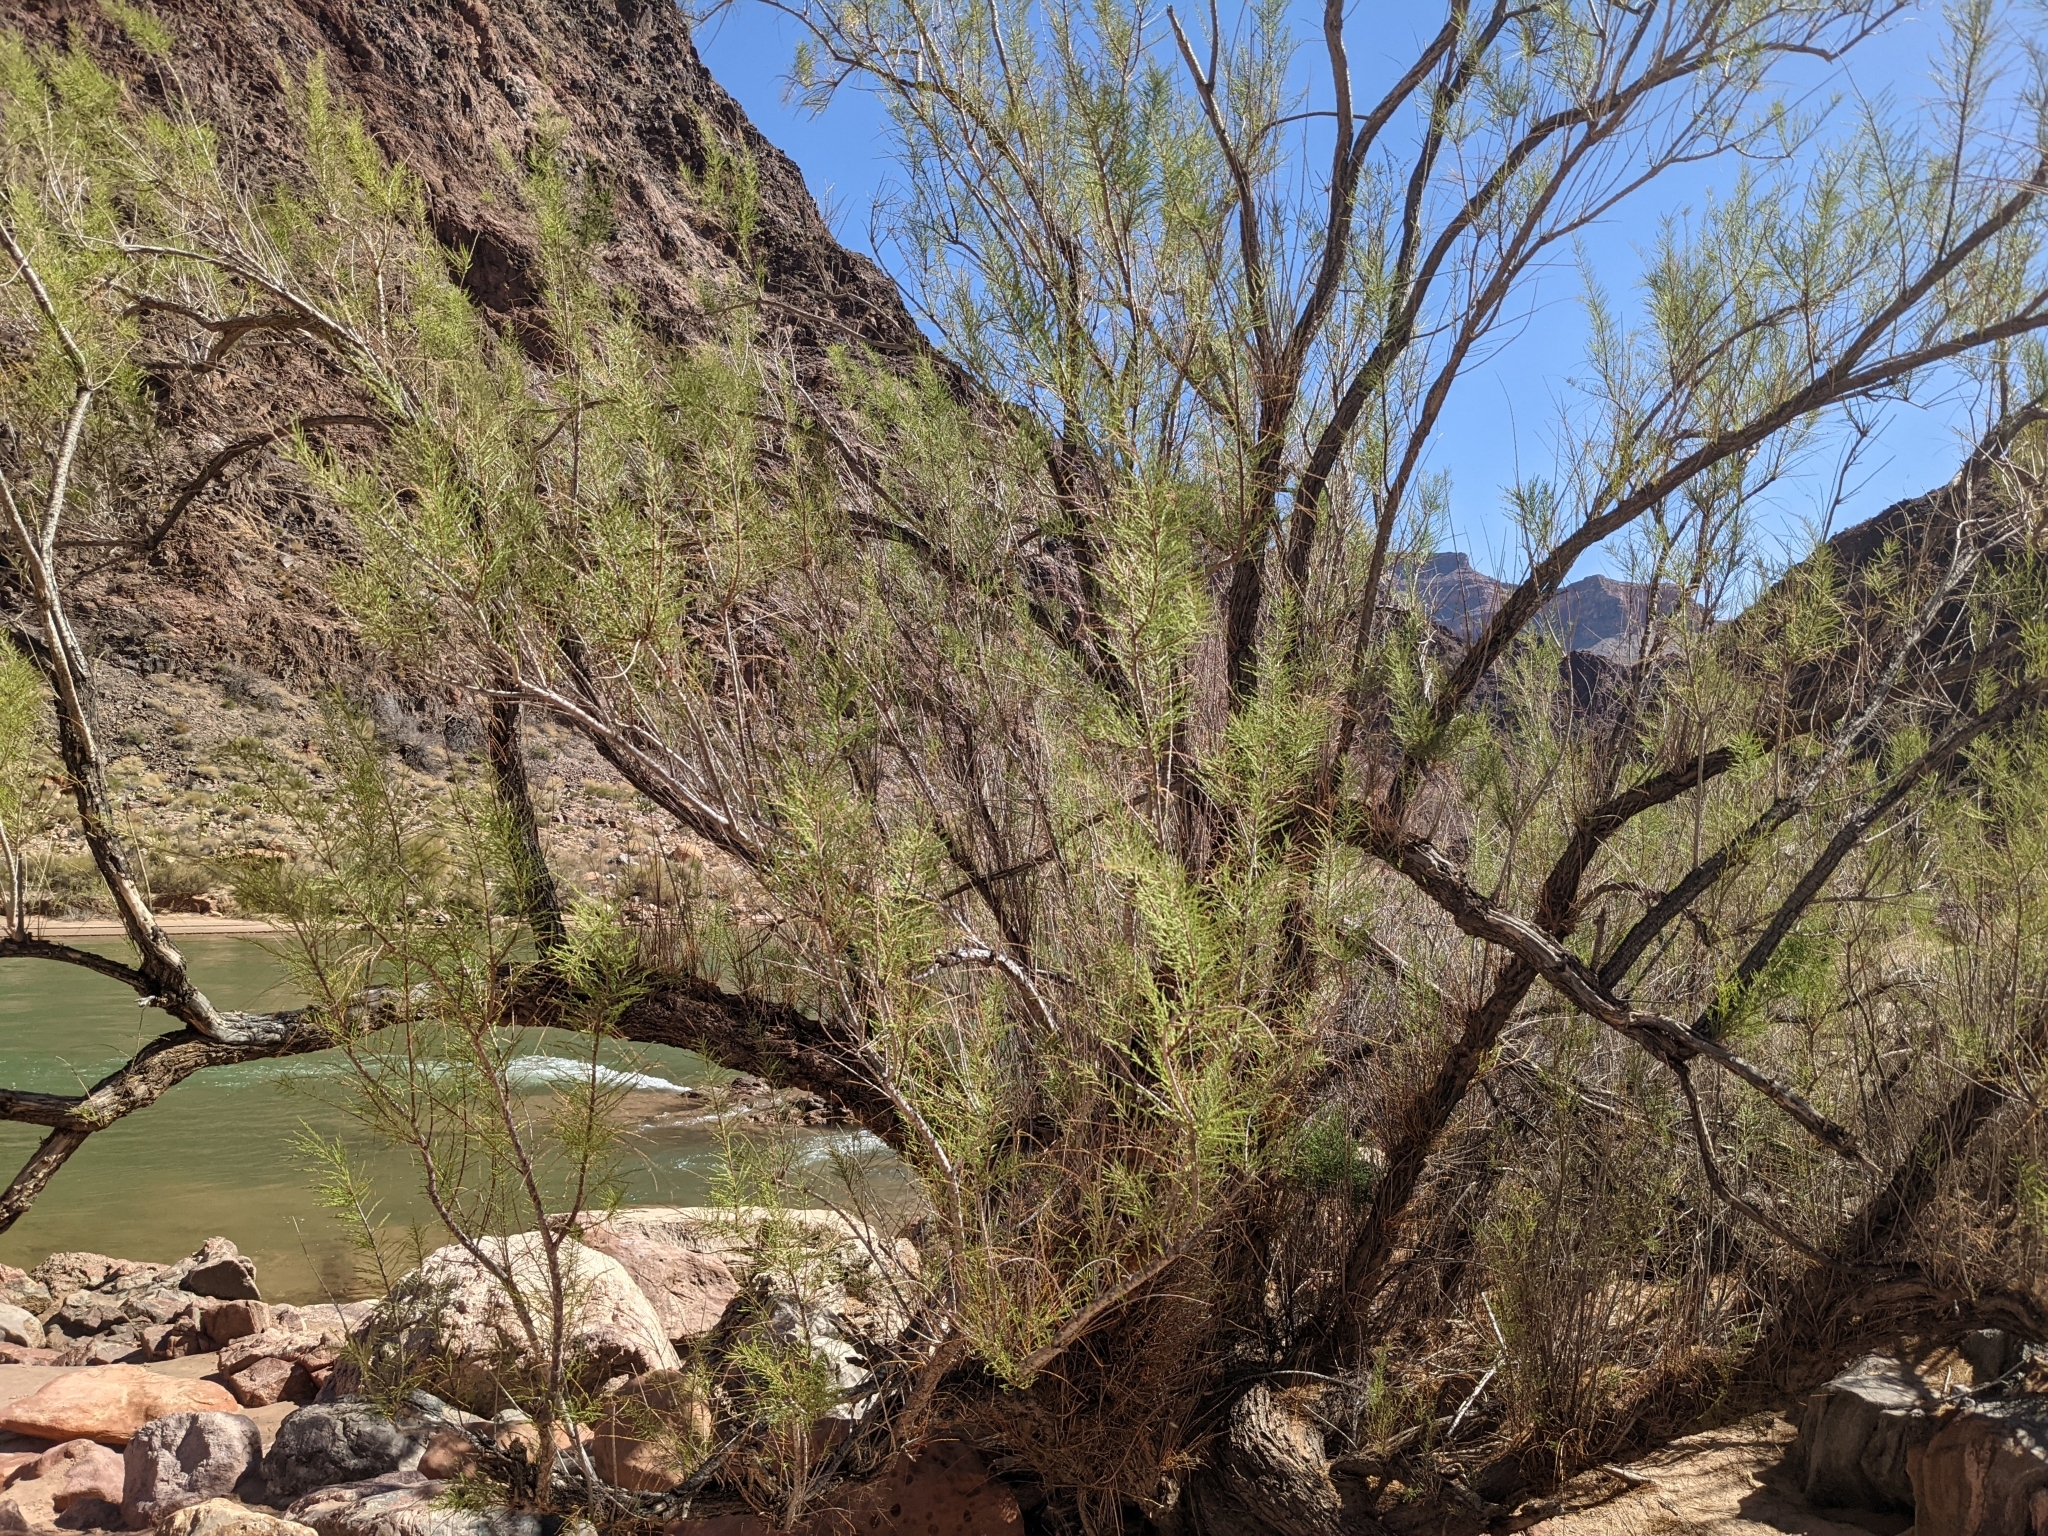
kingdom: Plantae
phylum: Tracheophyta
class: Magnoliopsida
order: Caryophyllales
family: Tamaricaceae
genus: Tamarix
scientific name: Tamarix
